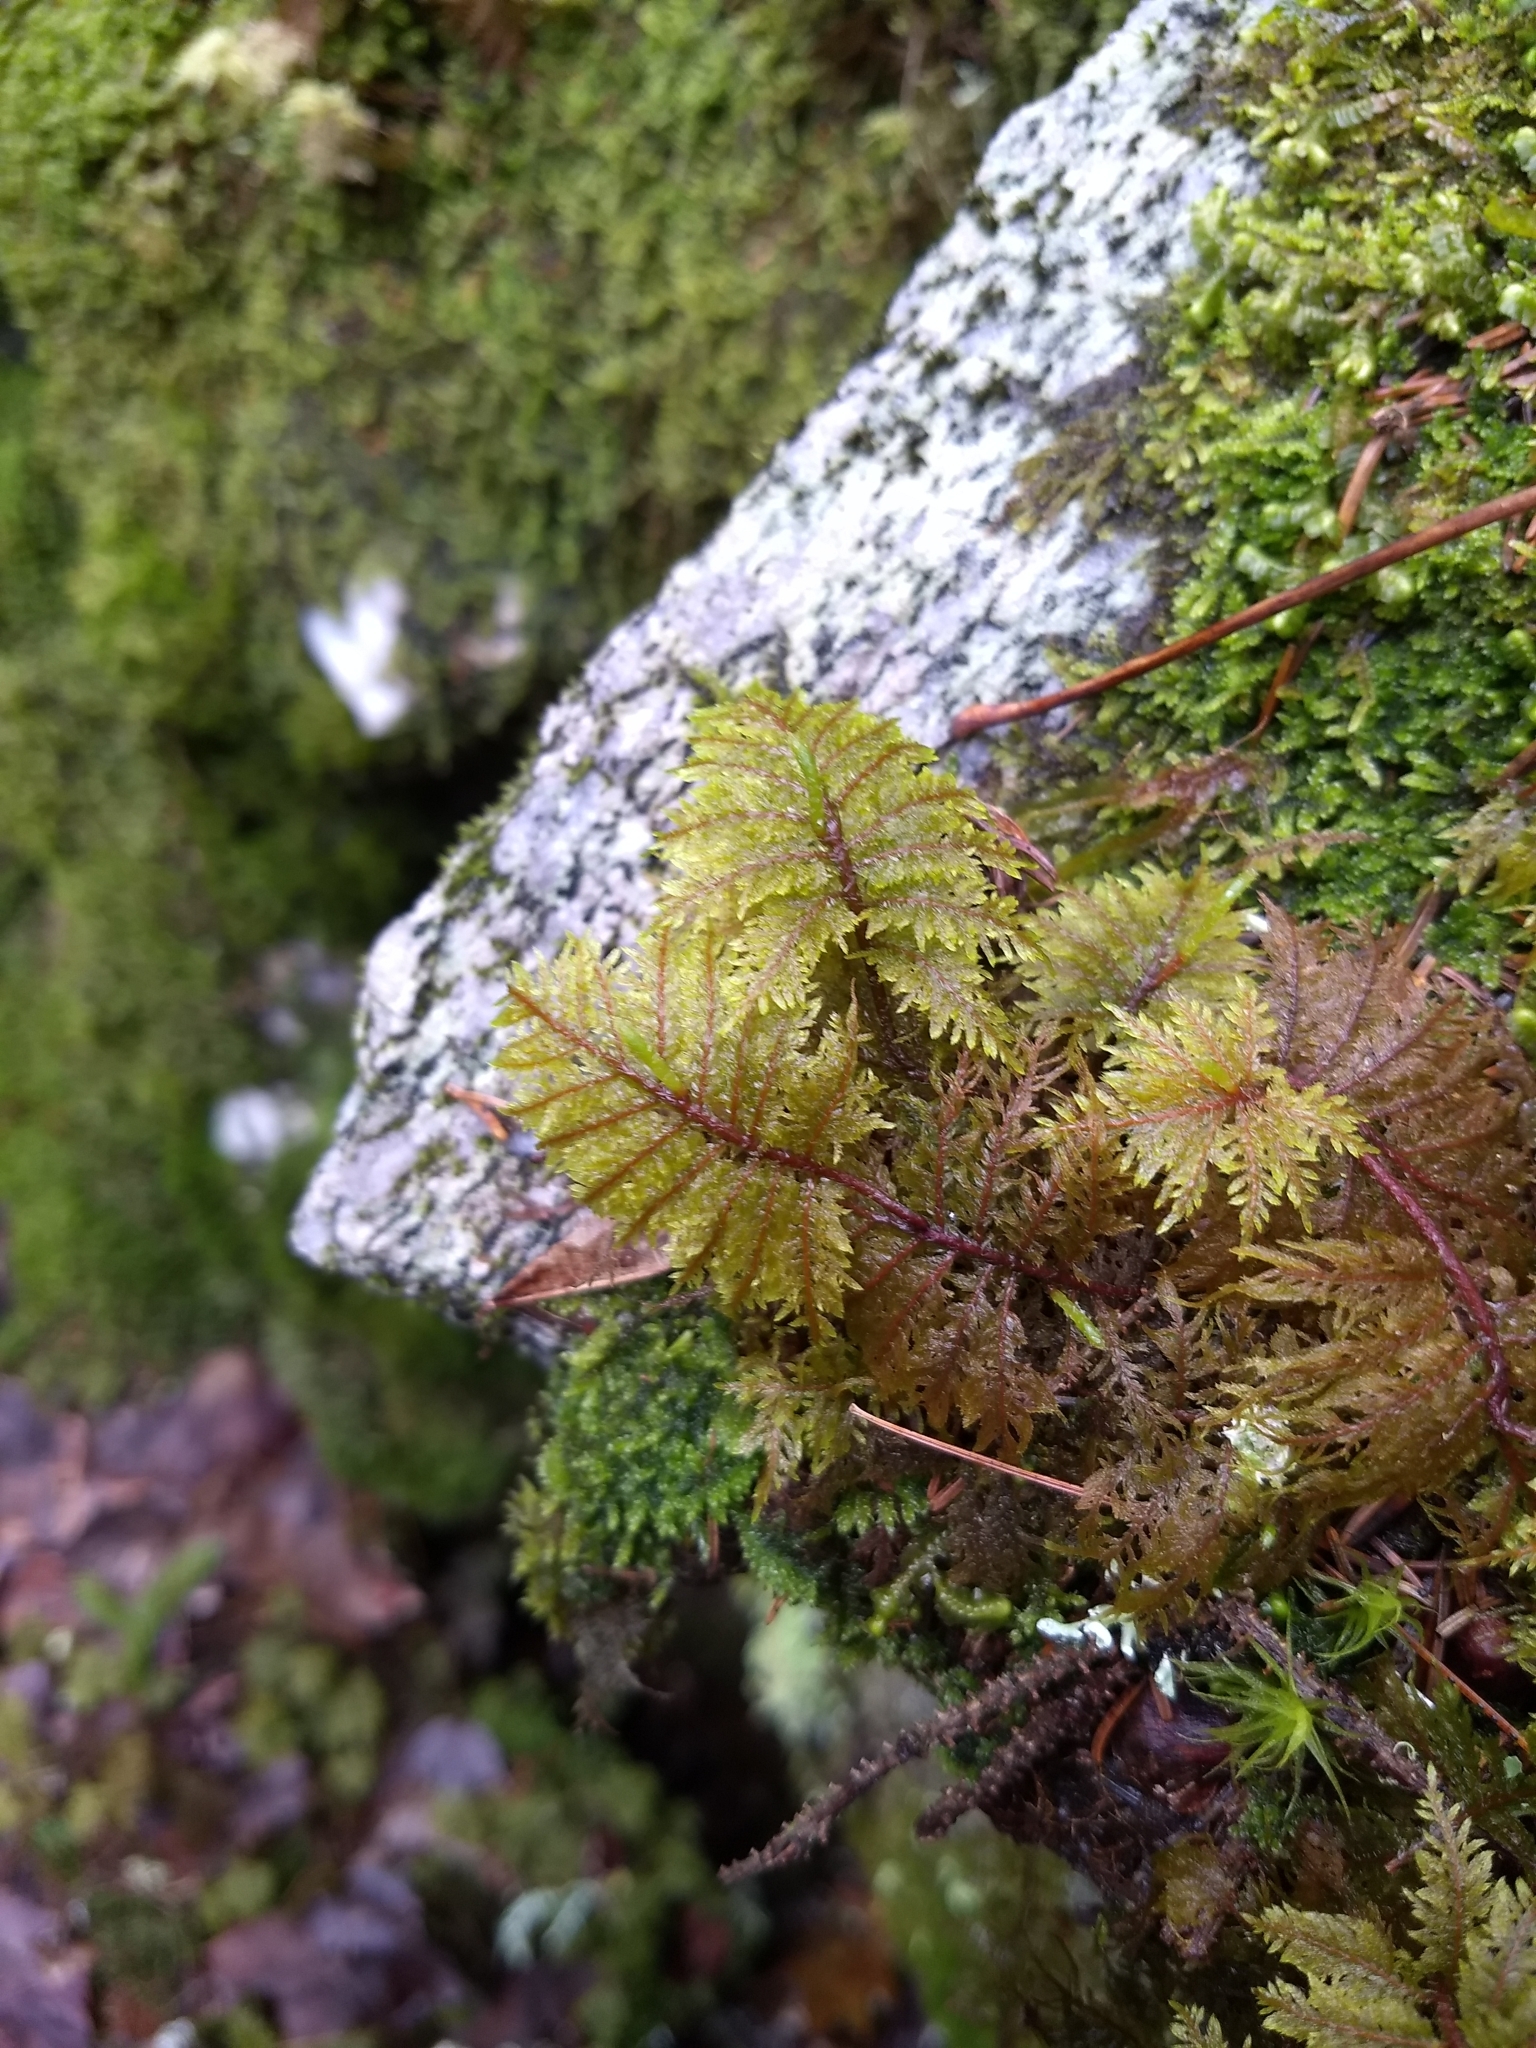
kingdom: Plantae
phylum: Bryophyta
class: Bryopsida
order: Hypnales
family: Hylocomiaceae
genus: Hylocomium
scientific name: Hylocomium splendens
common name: Stairstep moss
